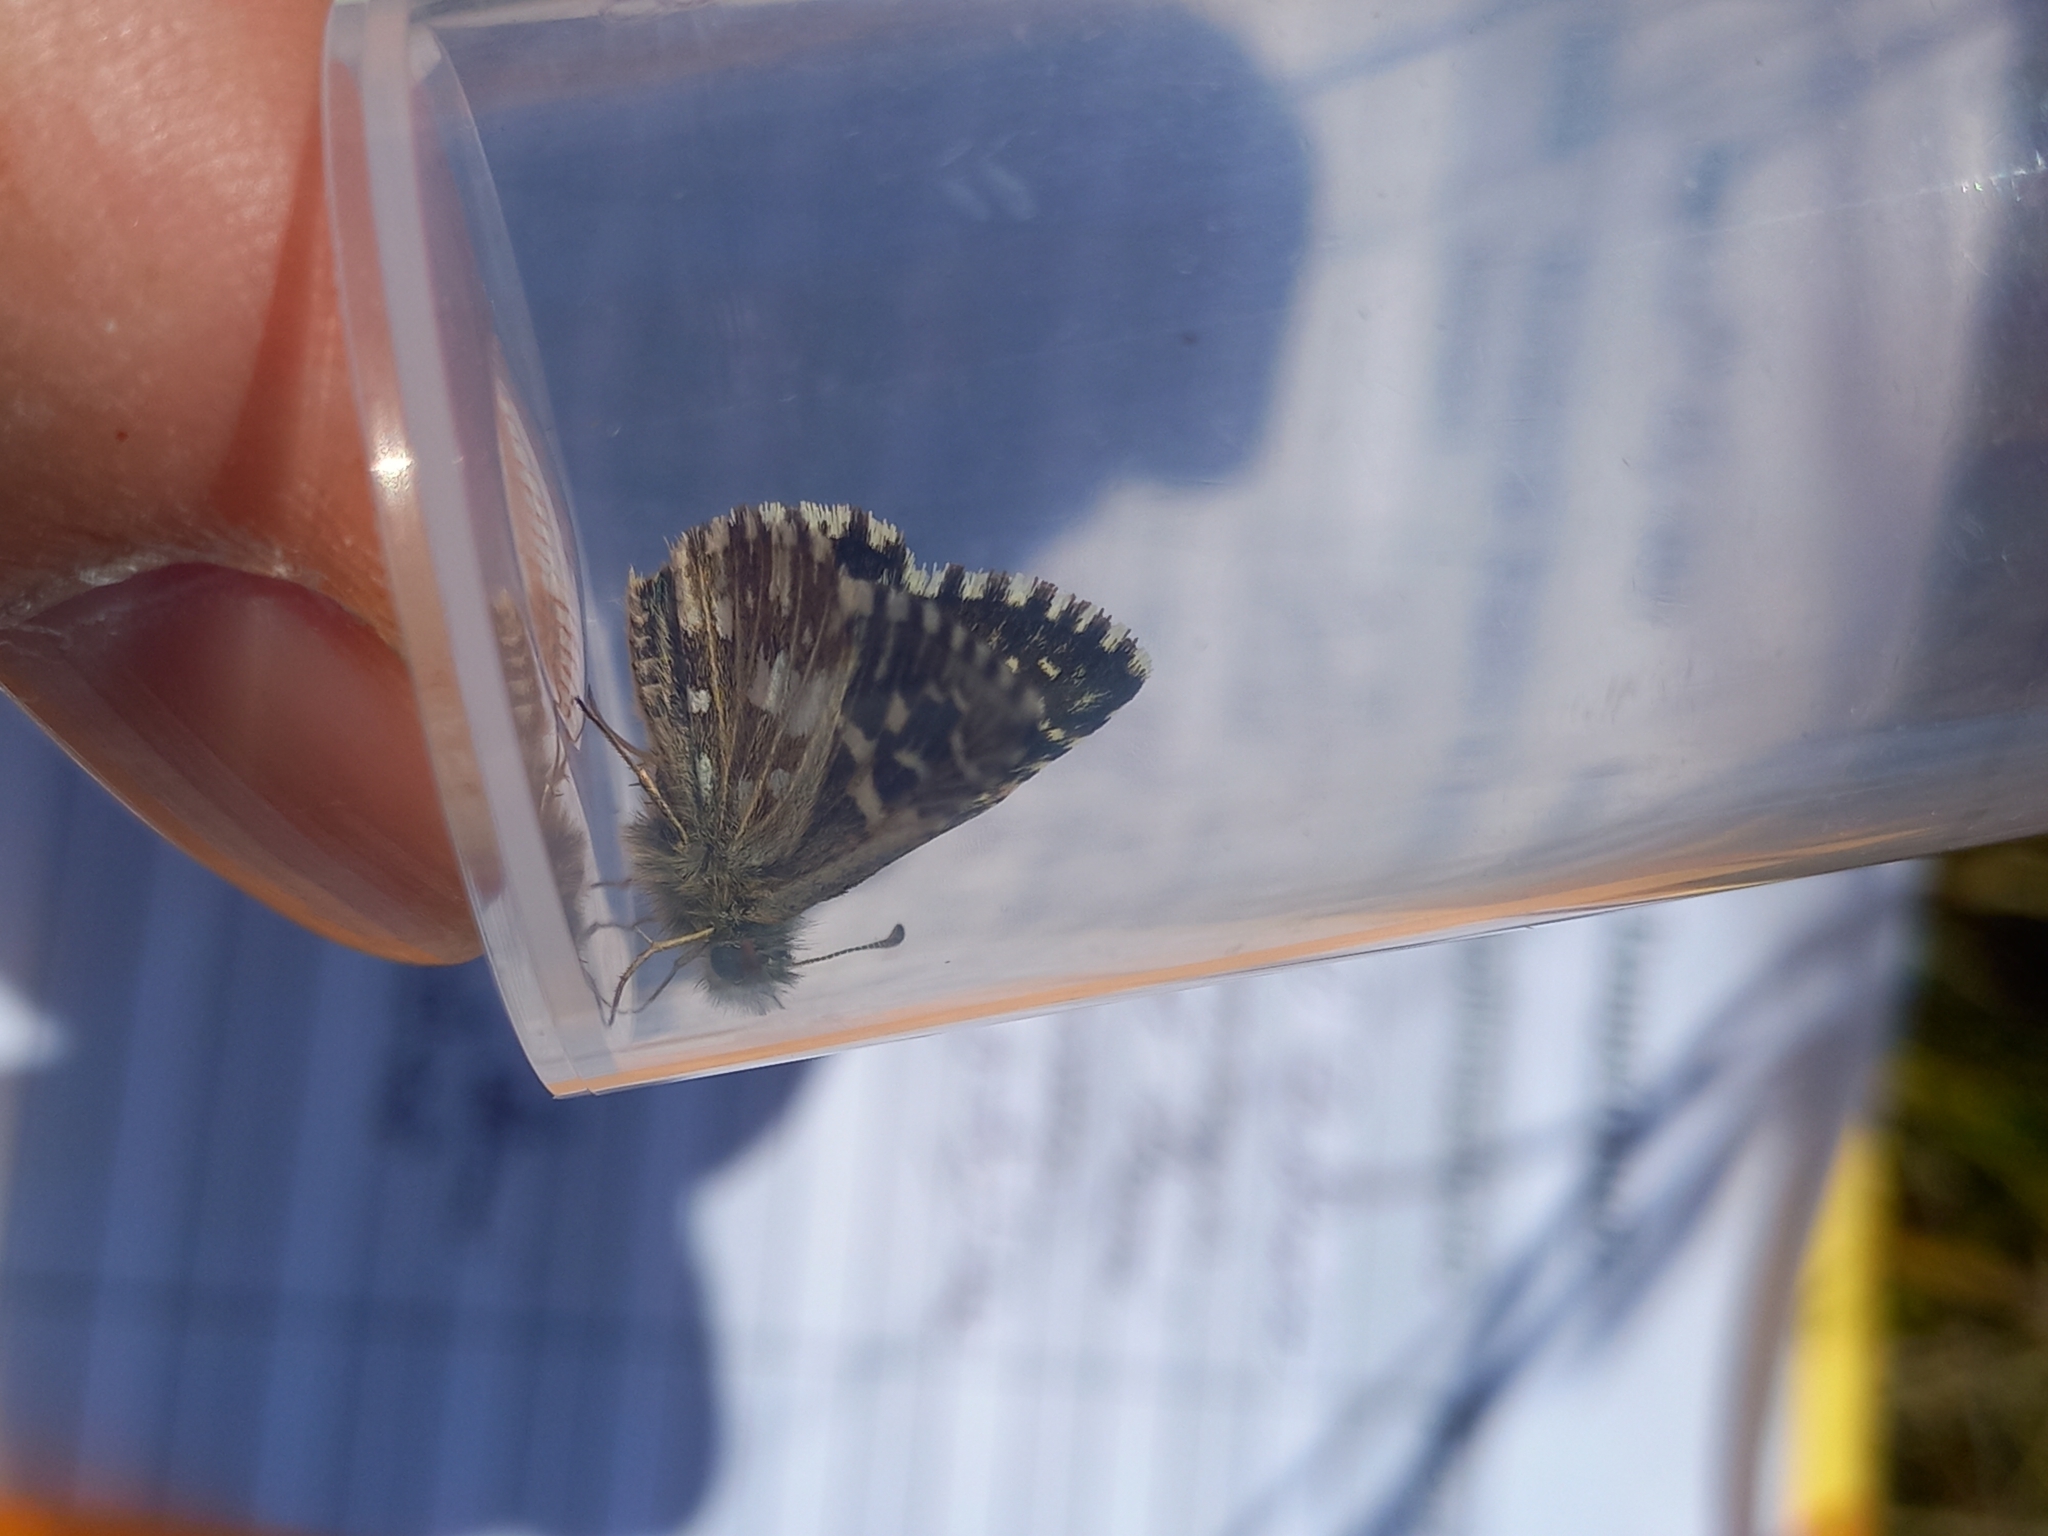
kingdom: Animalia
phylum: Arthropoda
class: Insecta
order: Lepidoptera
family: Hesperiidae
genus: Pyrgus
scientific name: Pyrgus malvae
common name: Grizzled skipper
